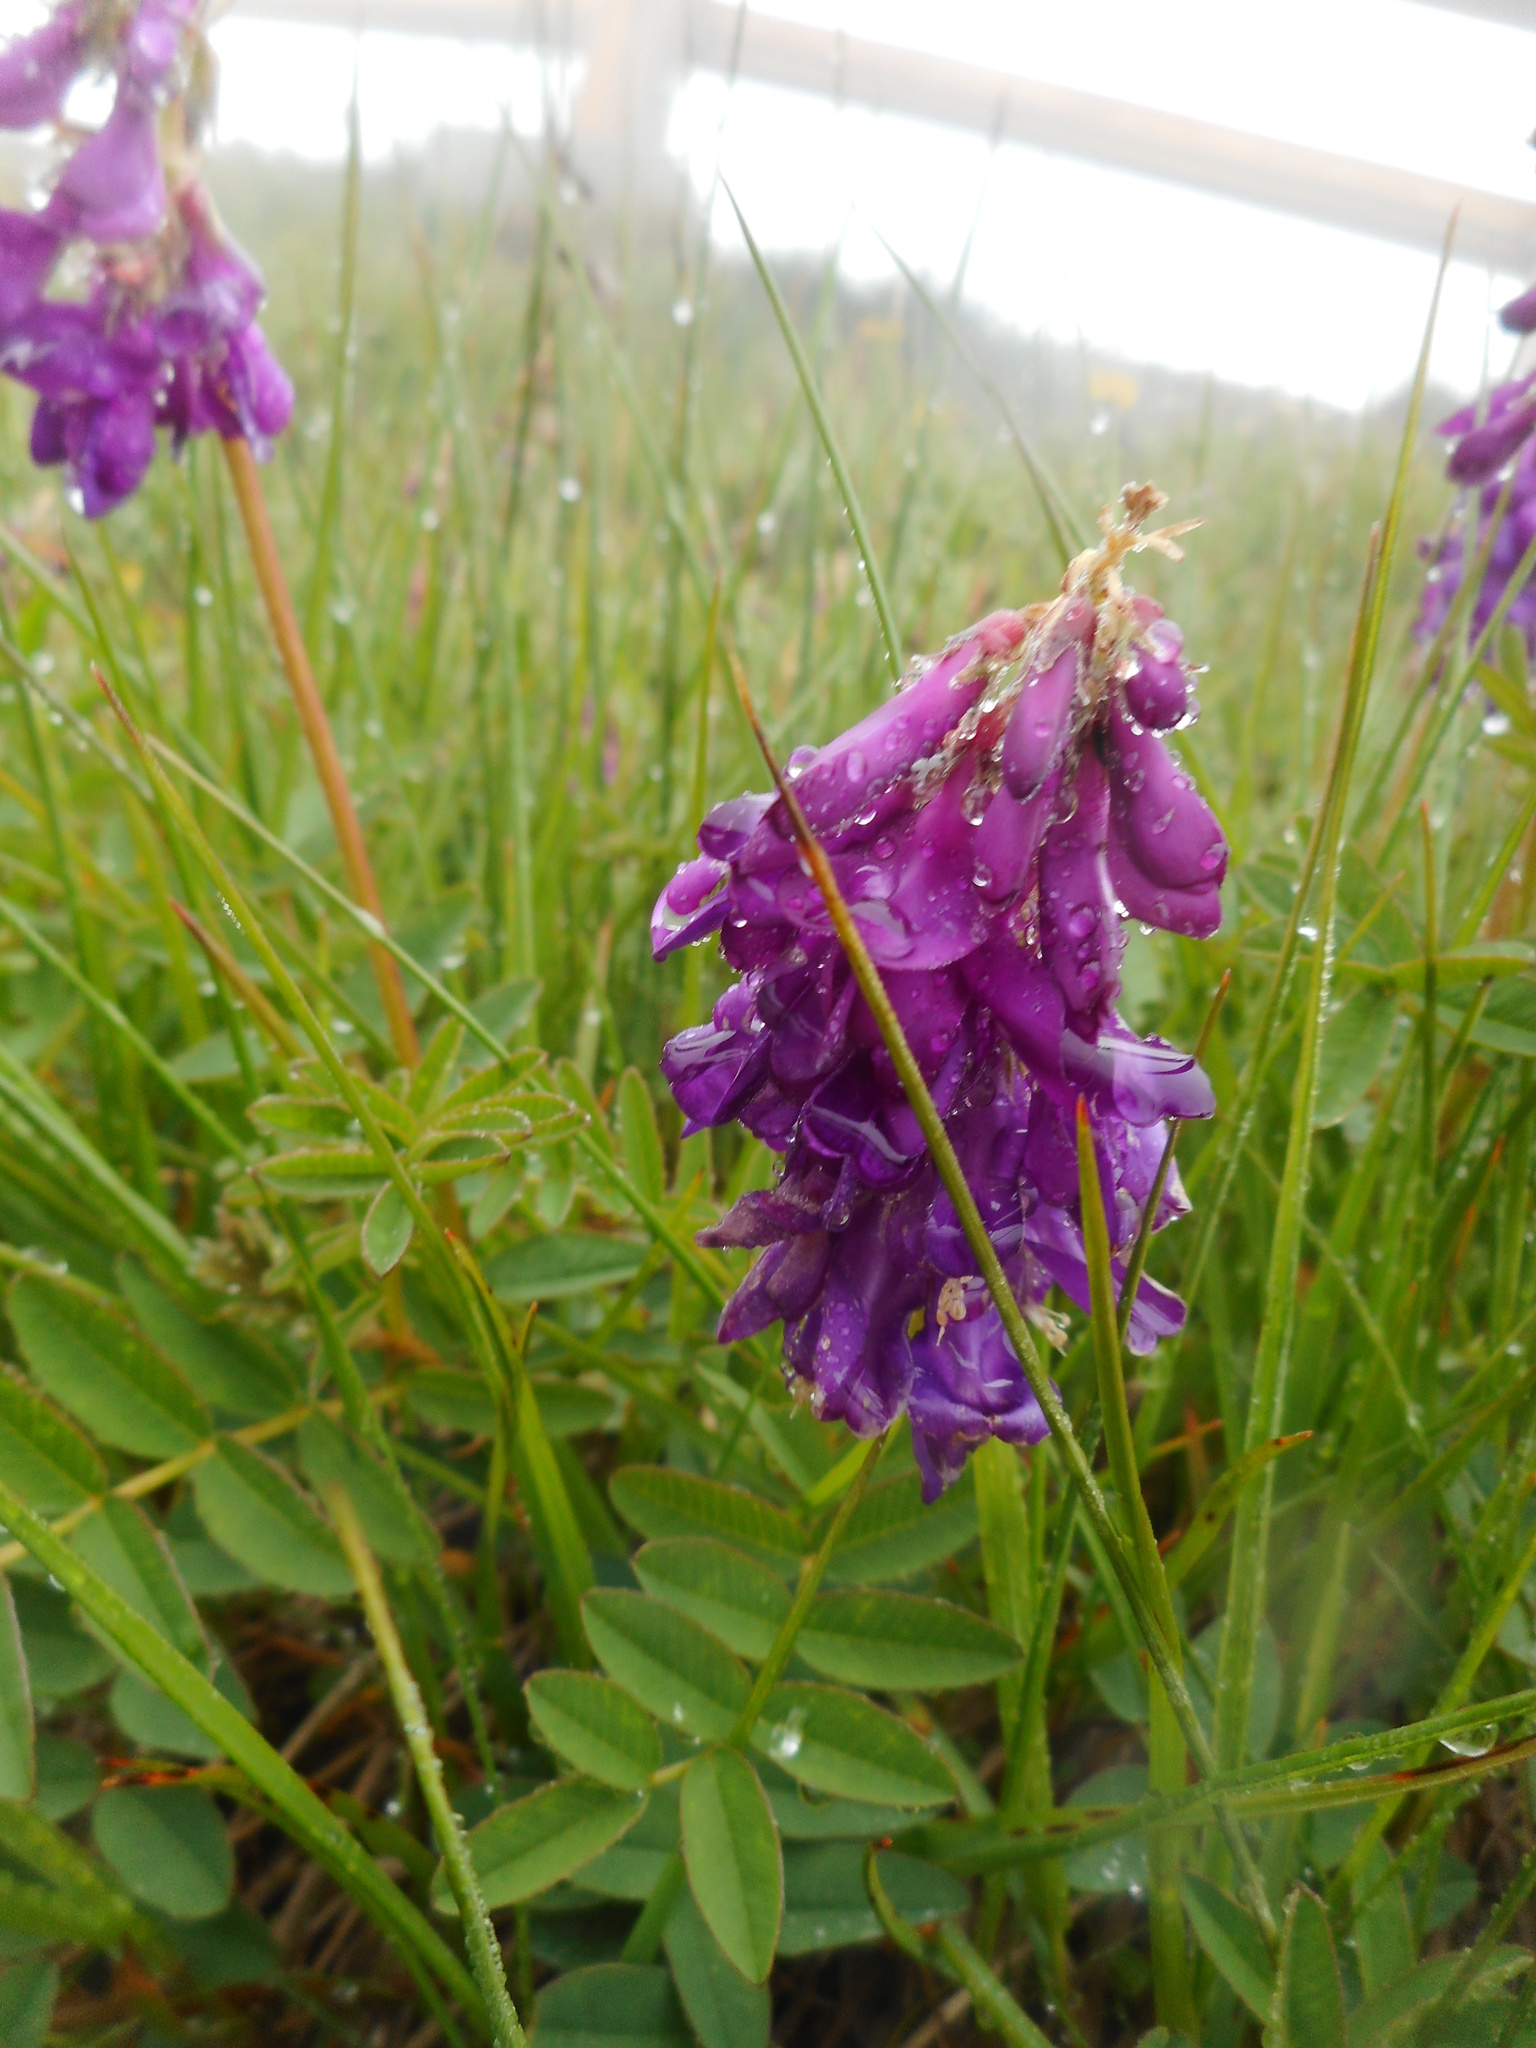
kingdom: Plantae
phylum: Tracheophyta
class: Magnoliopsida
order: Fabales
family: Fabaceae
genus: Hedysarum
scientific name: Hedysarum hedysaroides
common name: Alpine french-honeysuckle
